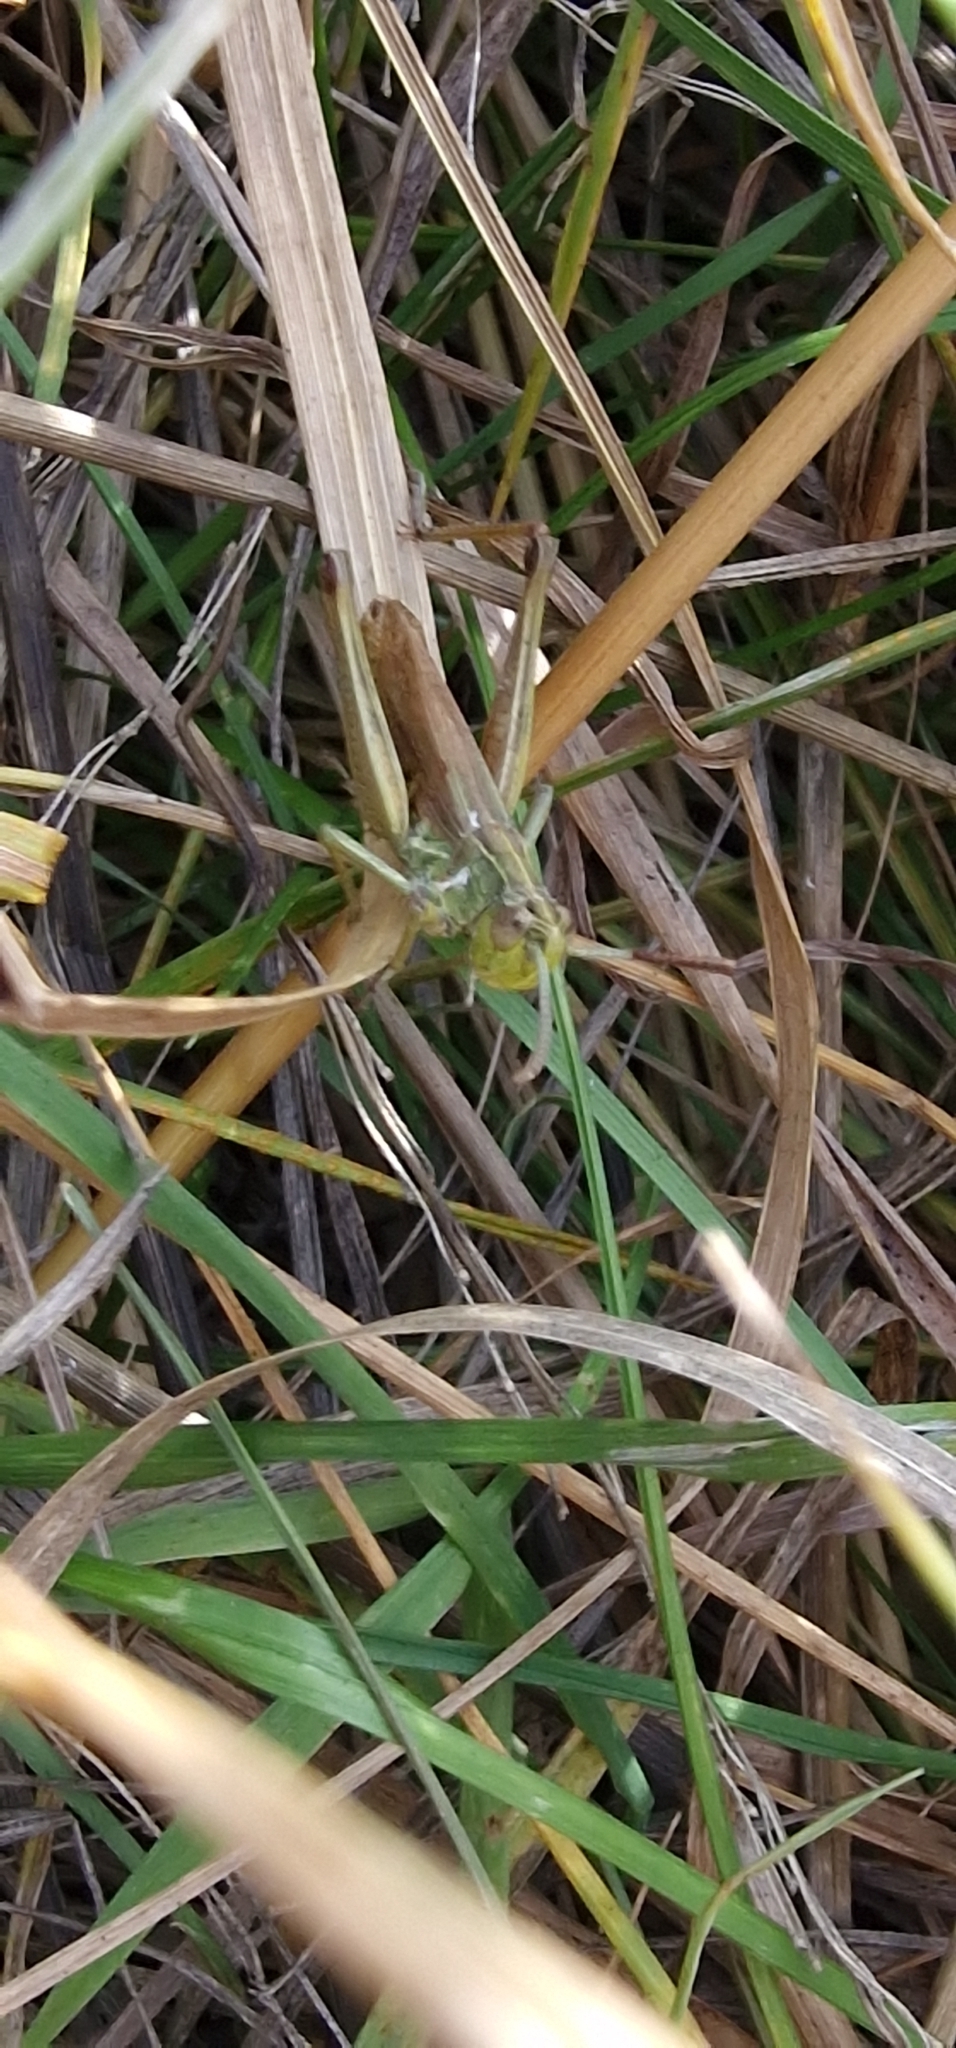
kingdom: Animalia
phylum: Arthropoda
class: Insecta
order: Orthoptera
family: Acrididae
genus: Pseudochorthippus
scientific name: Pseudochorthippus parallelus
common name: Meadow grasshopper
